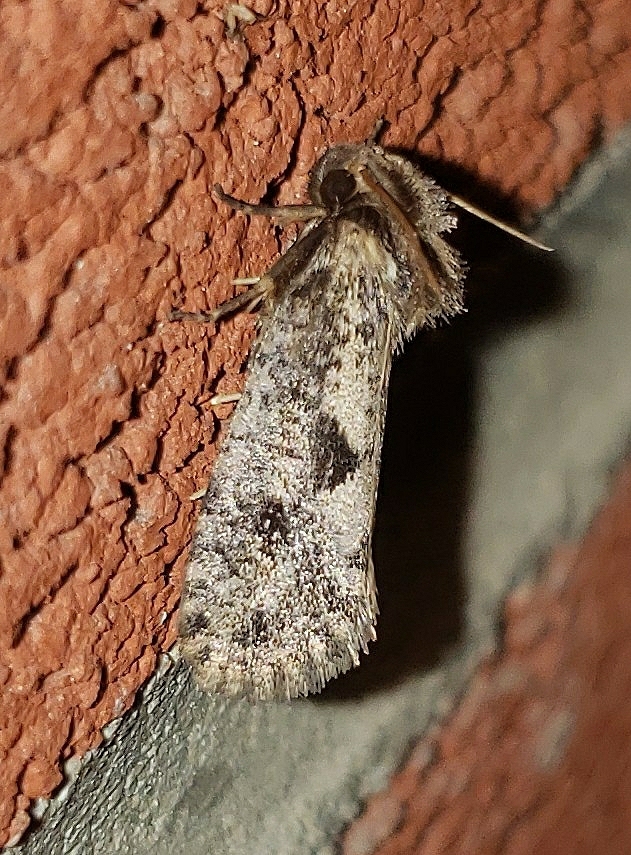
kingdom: Animalia
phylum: Arthropoda
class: Insecta
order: Lepidoptera
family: Tineidae
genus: Acrolophus
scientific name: Acrolophus popeanella
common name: Clemens' grass tubeworm moth
